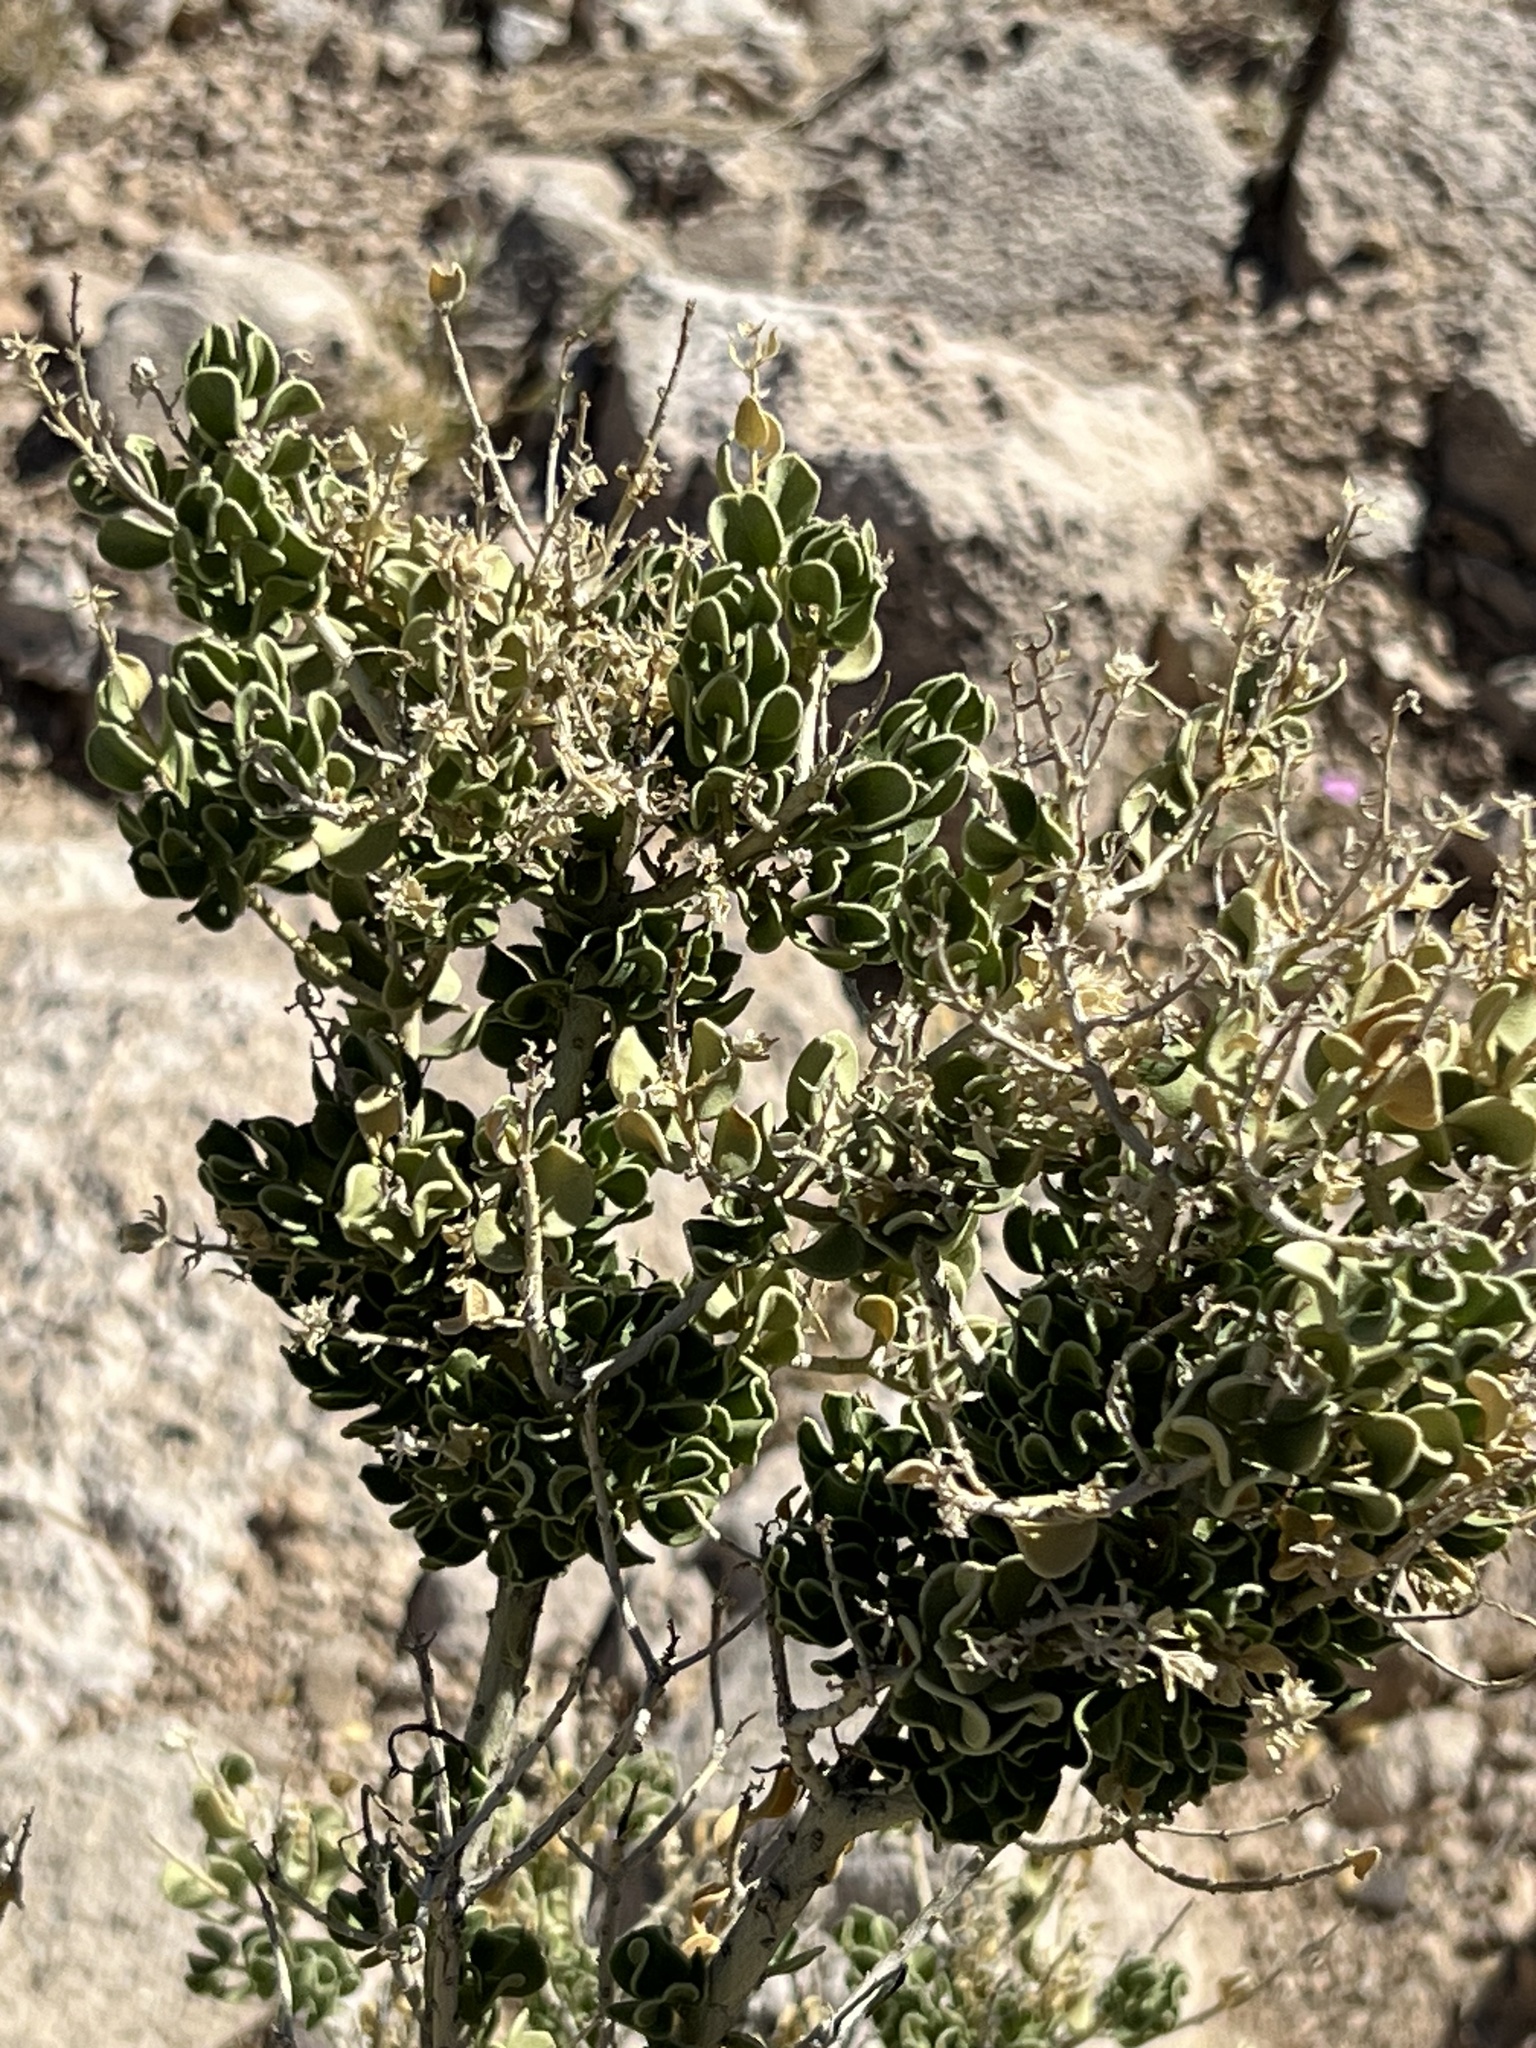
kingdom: Plantae
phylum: Tracheophyta
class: Magnoliopsida
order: Celastrales
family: Celastraceae
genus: Mortonia
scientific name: Mortonia utahensis
